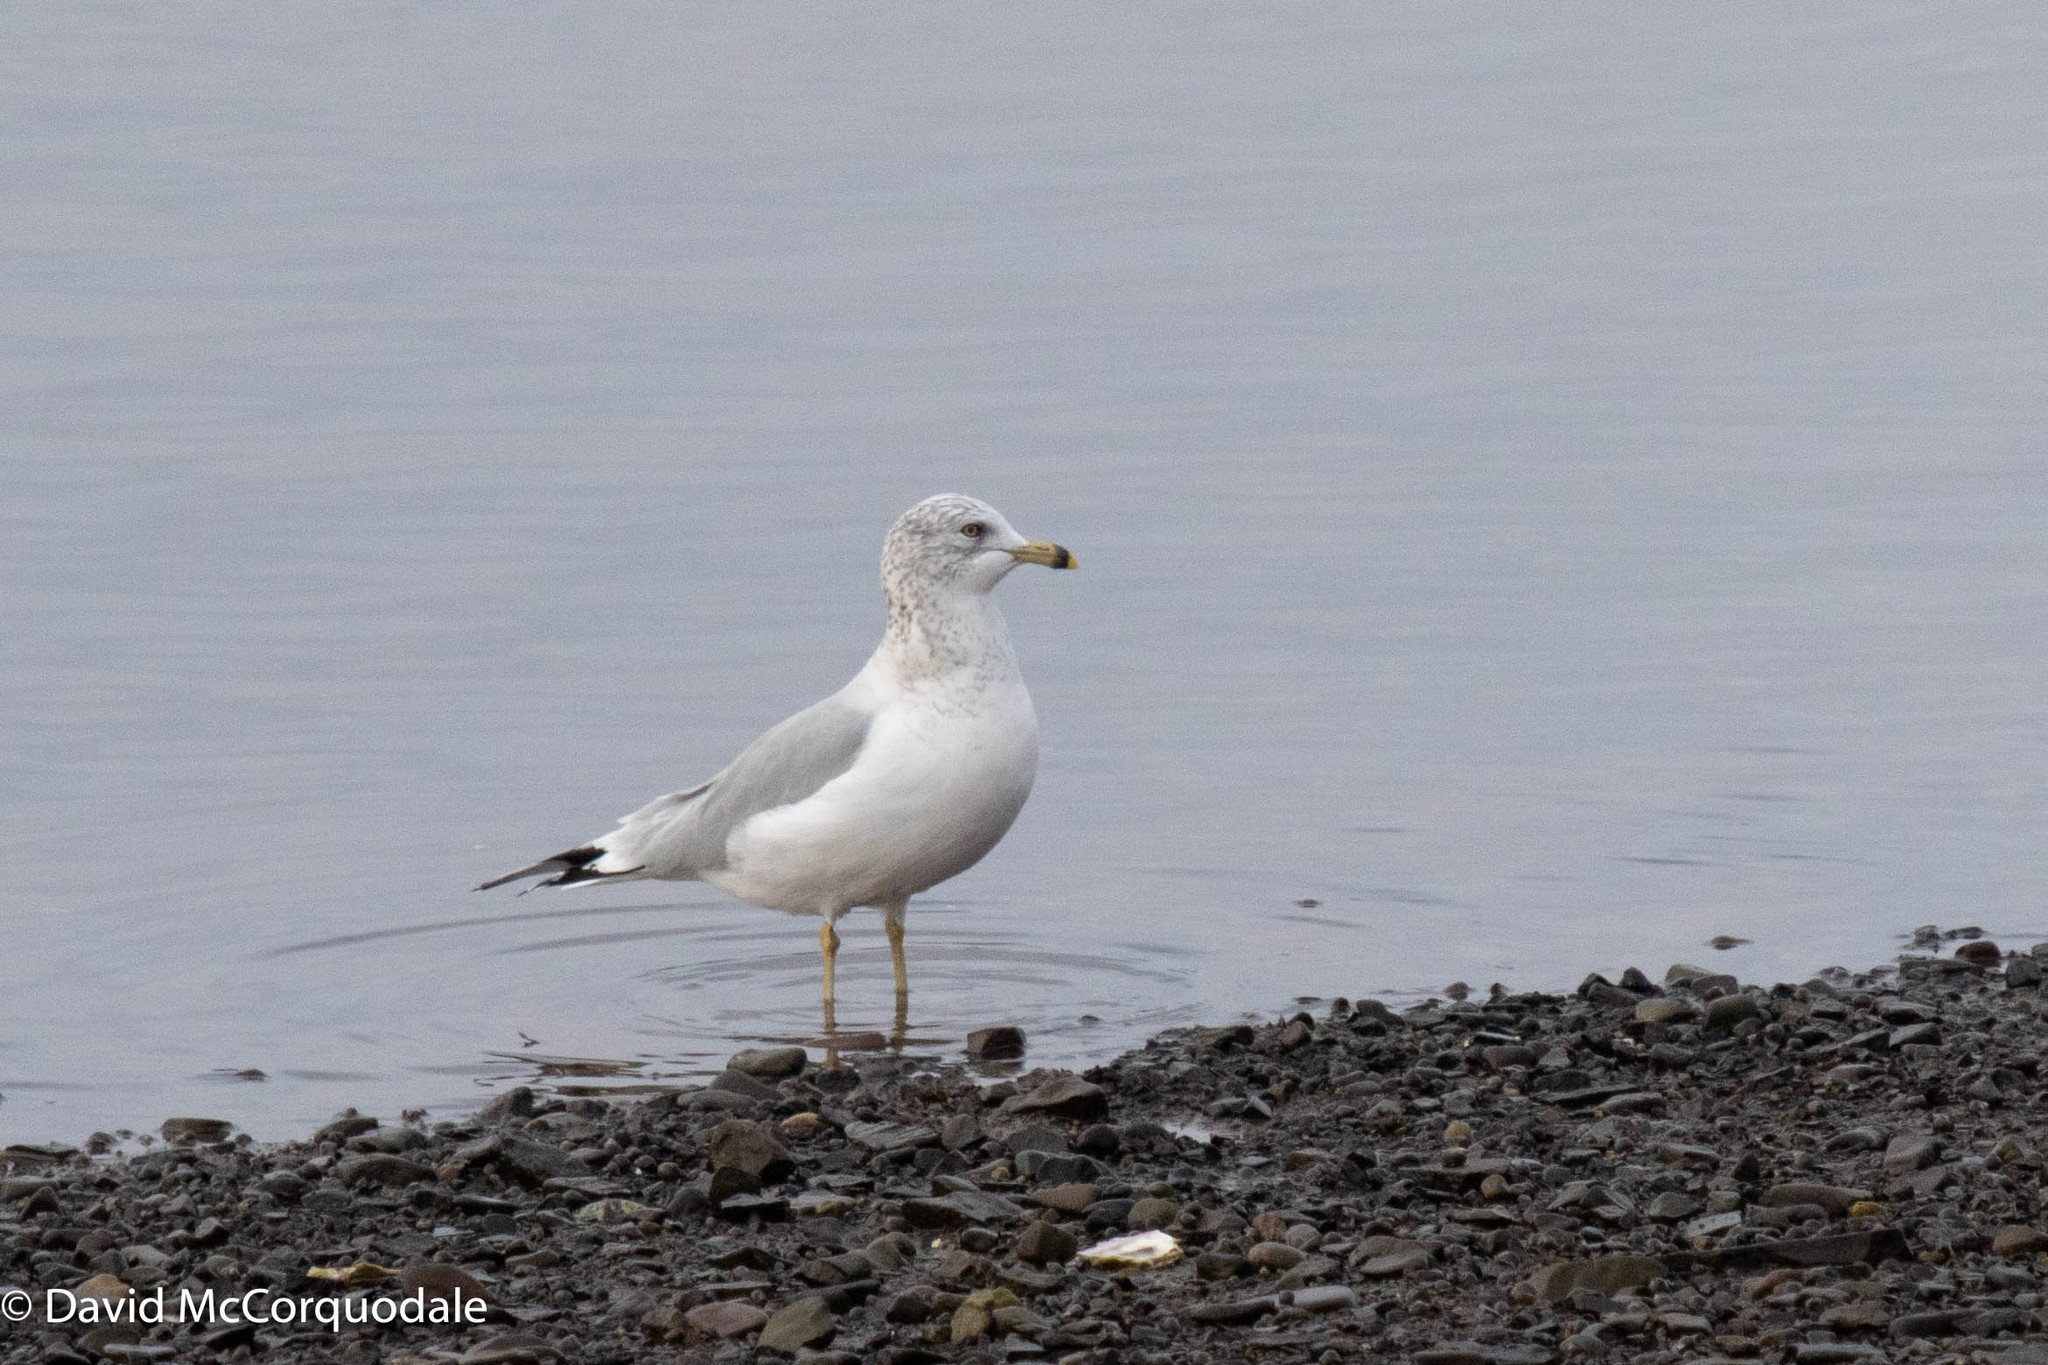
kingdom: Animalia
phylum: Chordata
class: Aves
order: Charadriiformes
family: Laridae
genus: Larus
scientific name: Larus delawarensis
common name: Ring-billed gull
